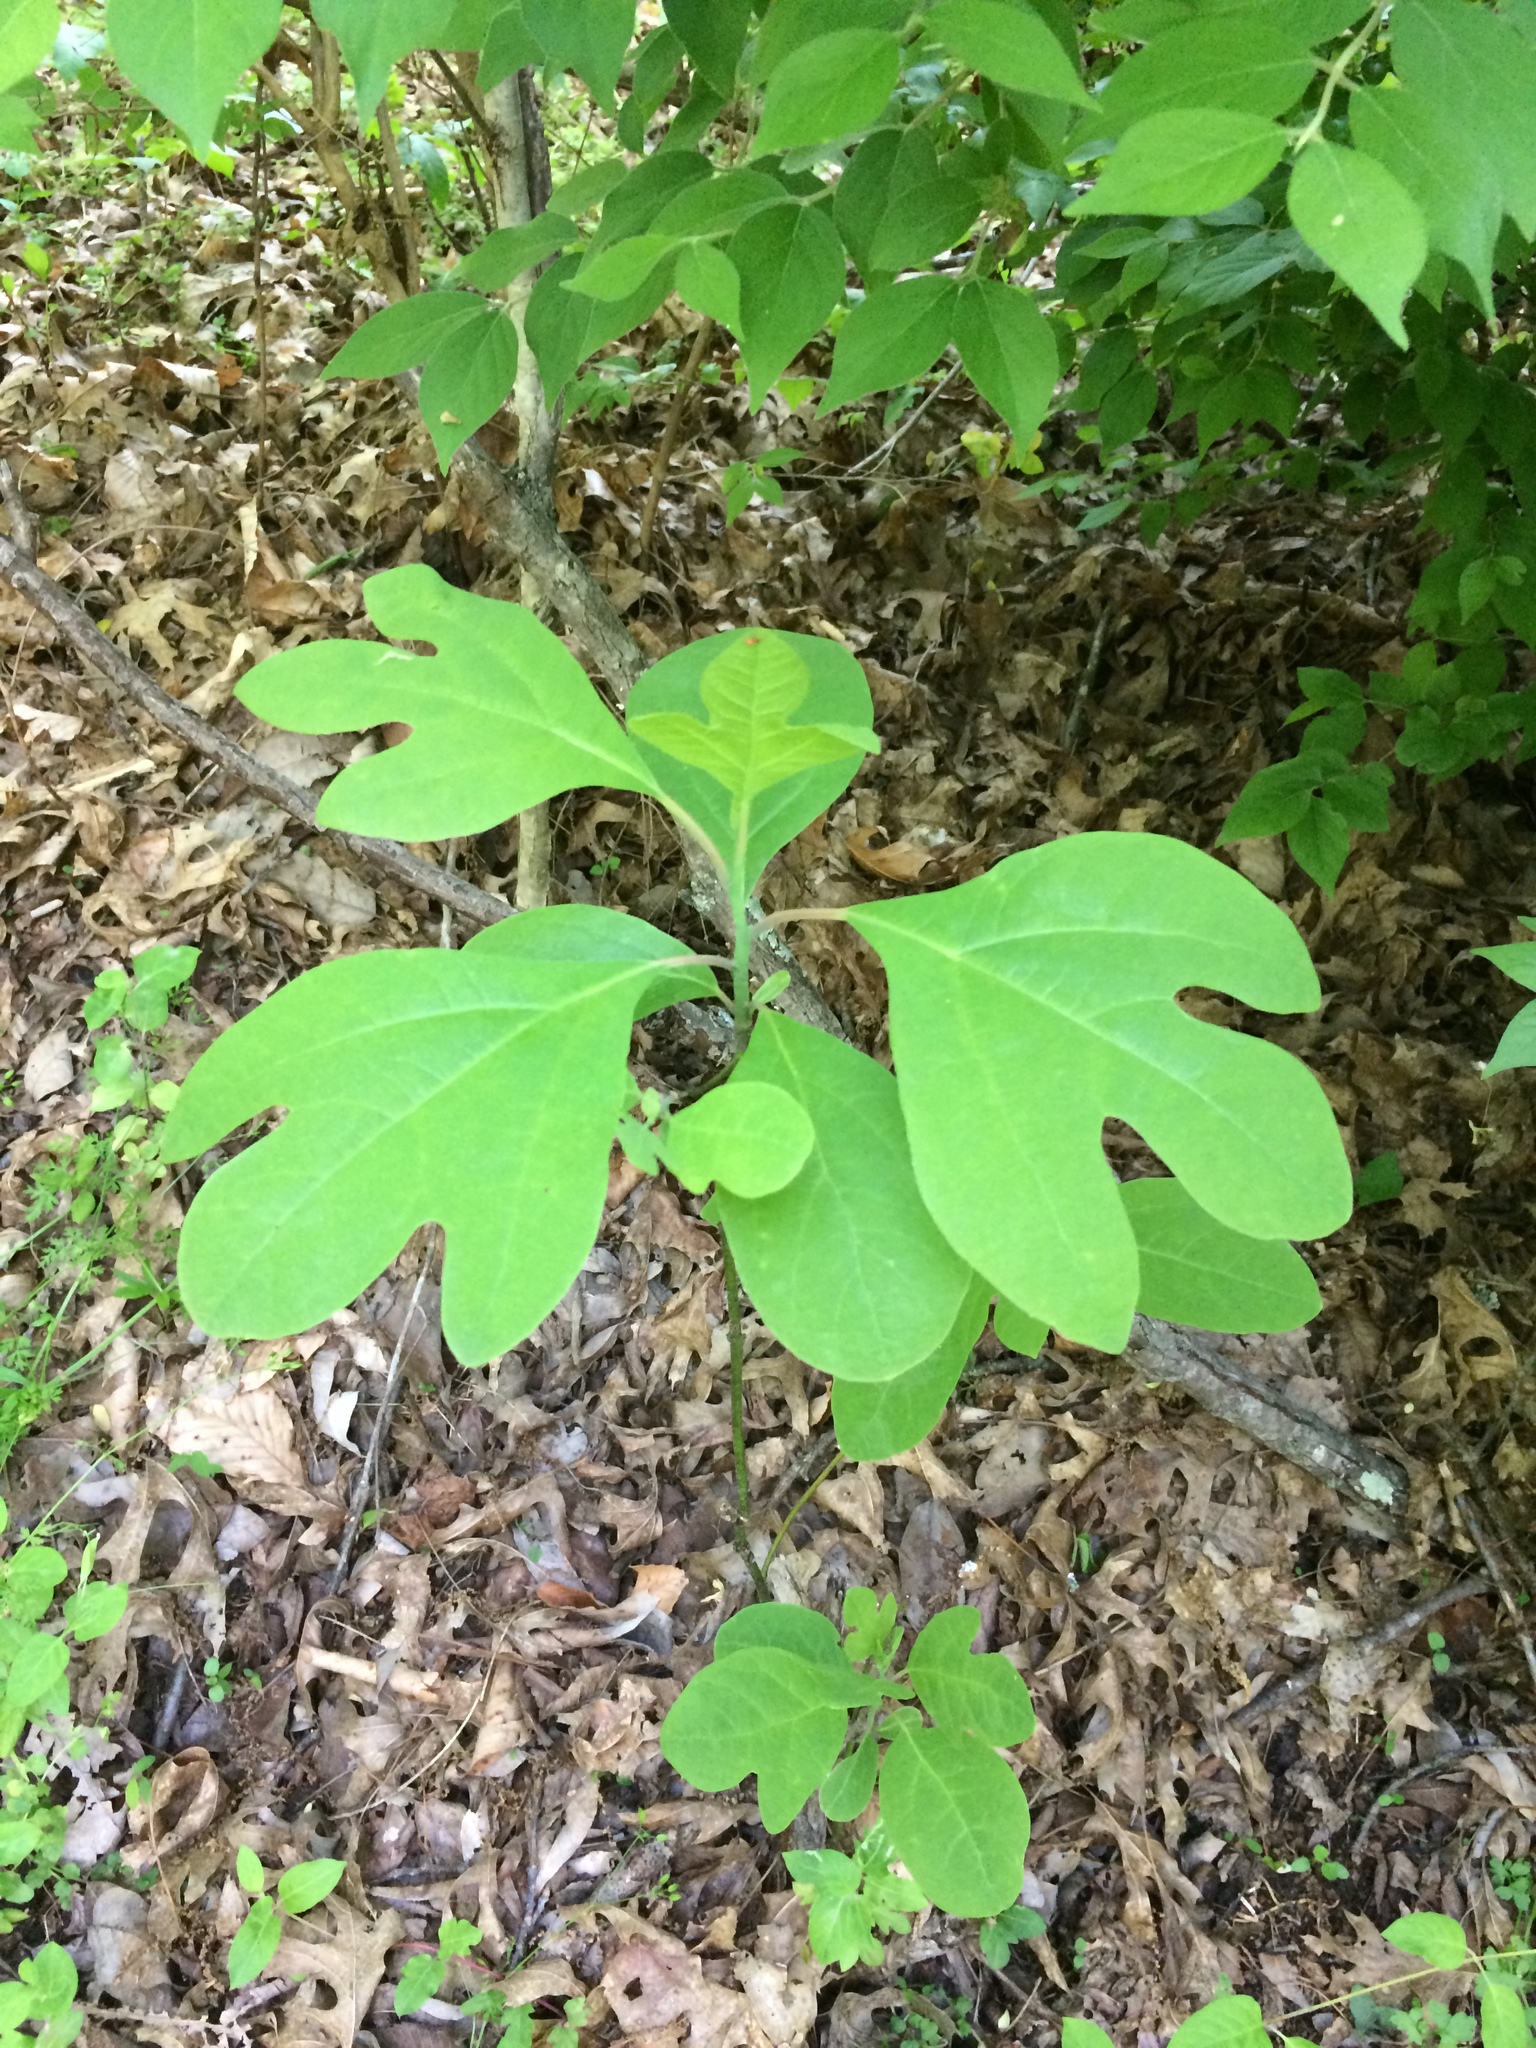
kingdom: Plantae
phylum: Tracheophyta
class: Magnoliopsida
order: Laurales
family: Lauraceae
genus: Sassafras
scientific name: Sassafras albidum
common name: Sassafras
